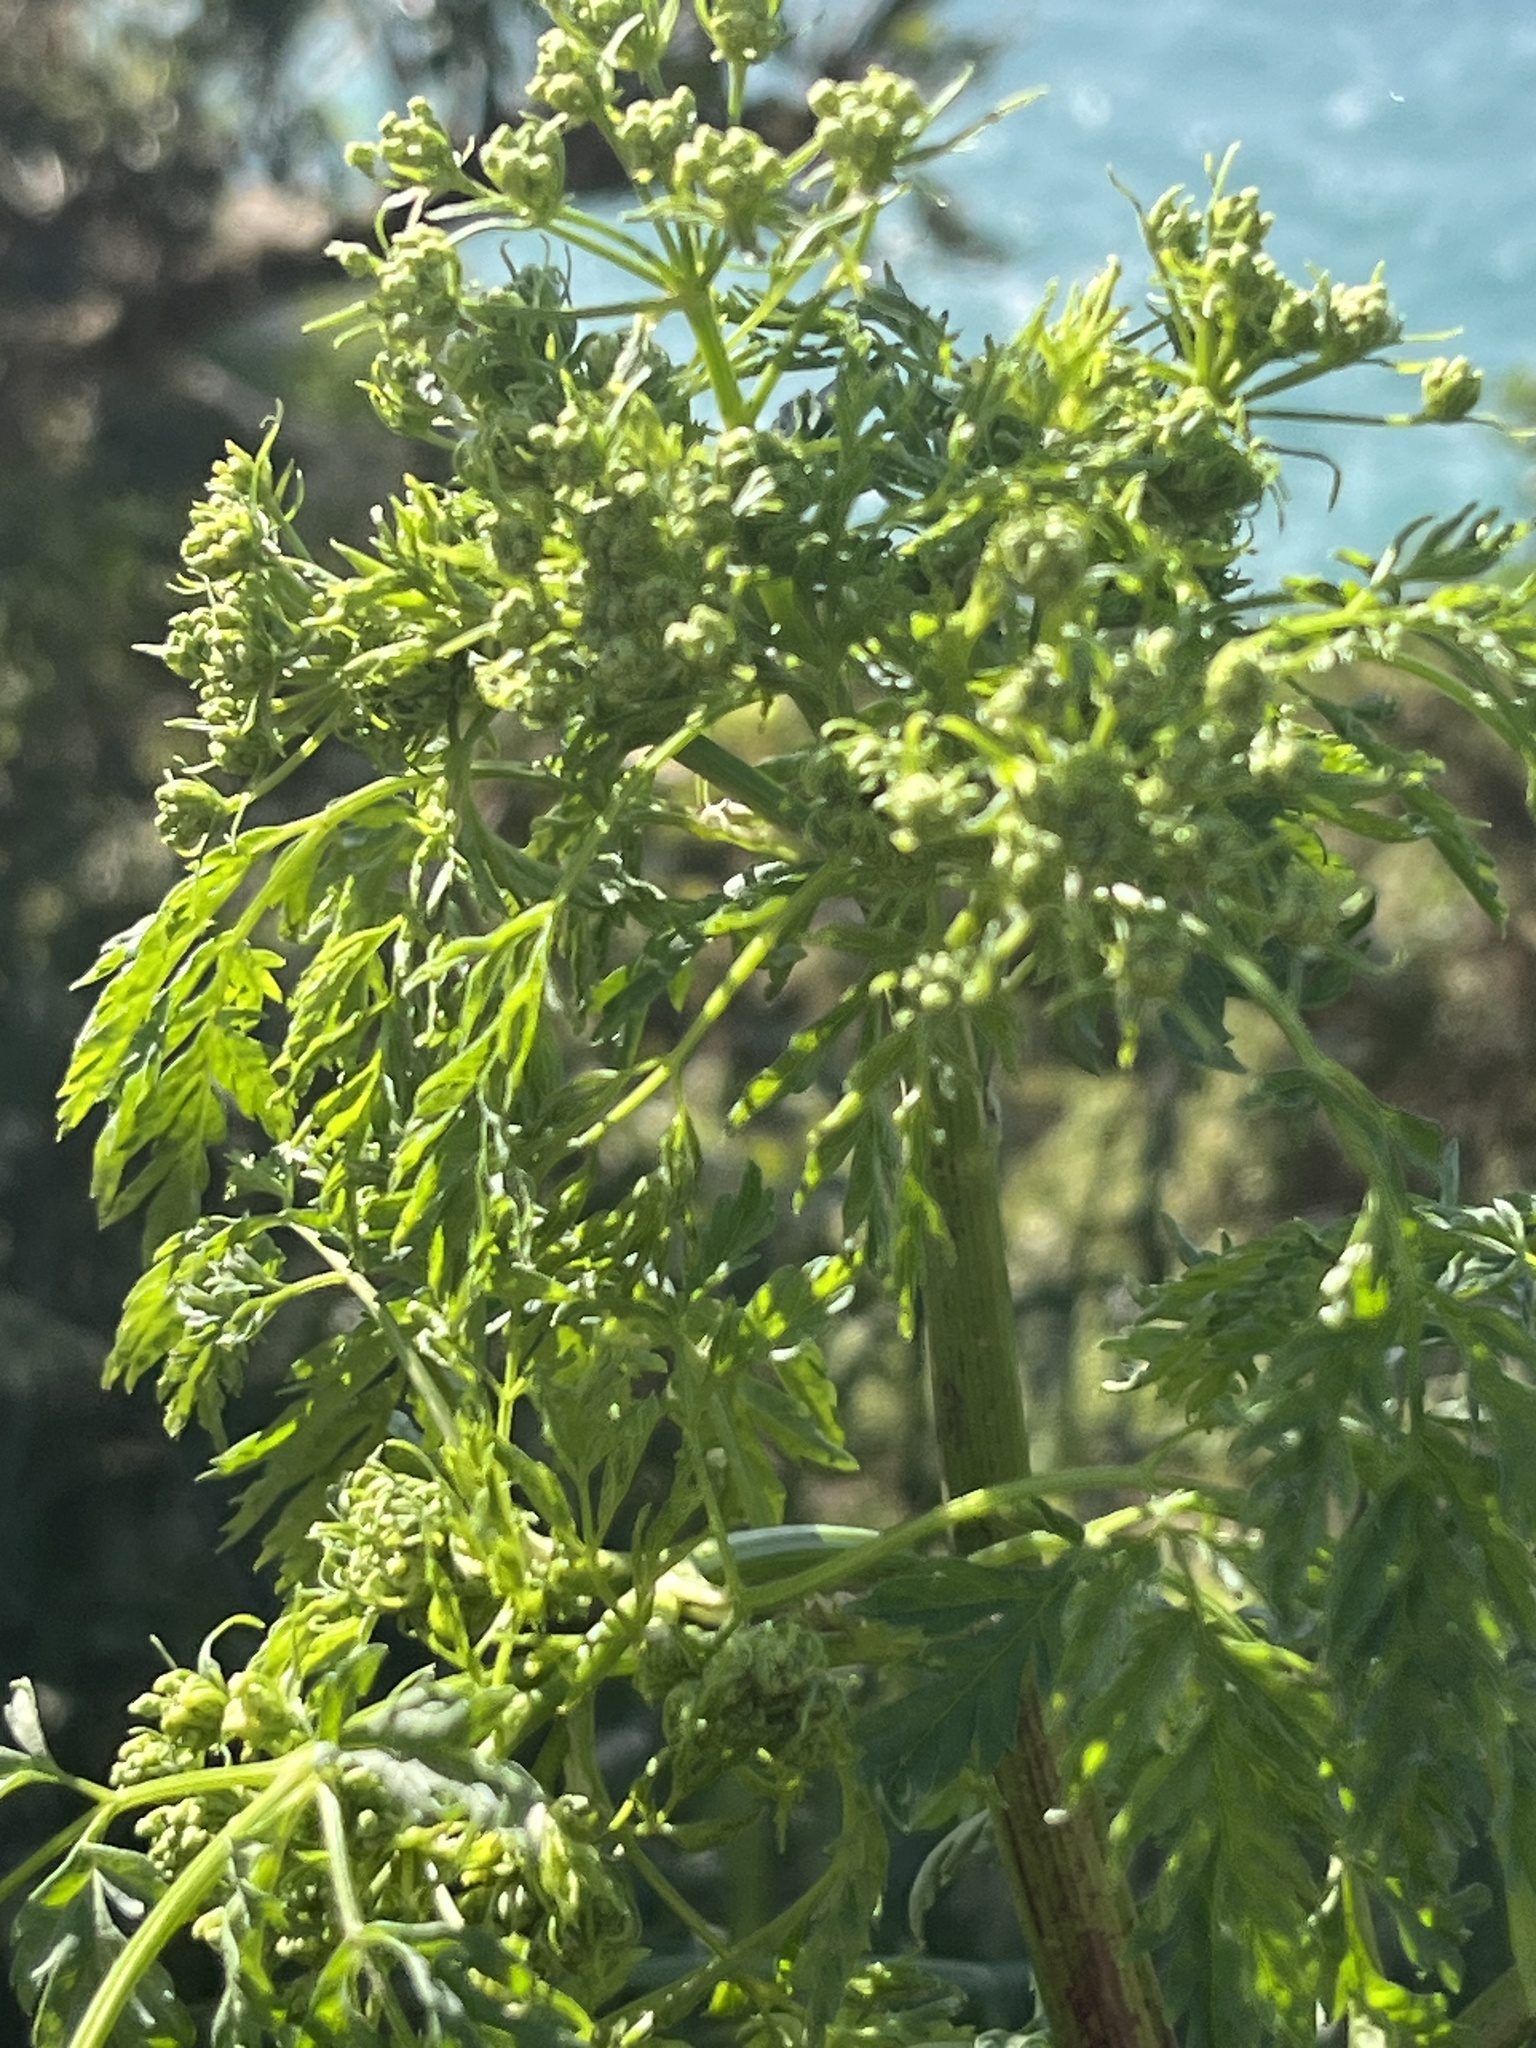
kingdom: Plantae
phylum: Tracheophyta
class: Magnoliopsida
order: Apiales
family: Apiaceae
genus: Conium
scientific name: Conium maculatum
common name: Hemlock
